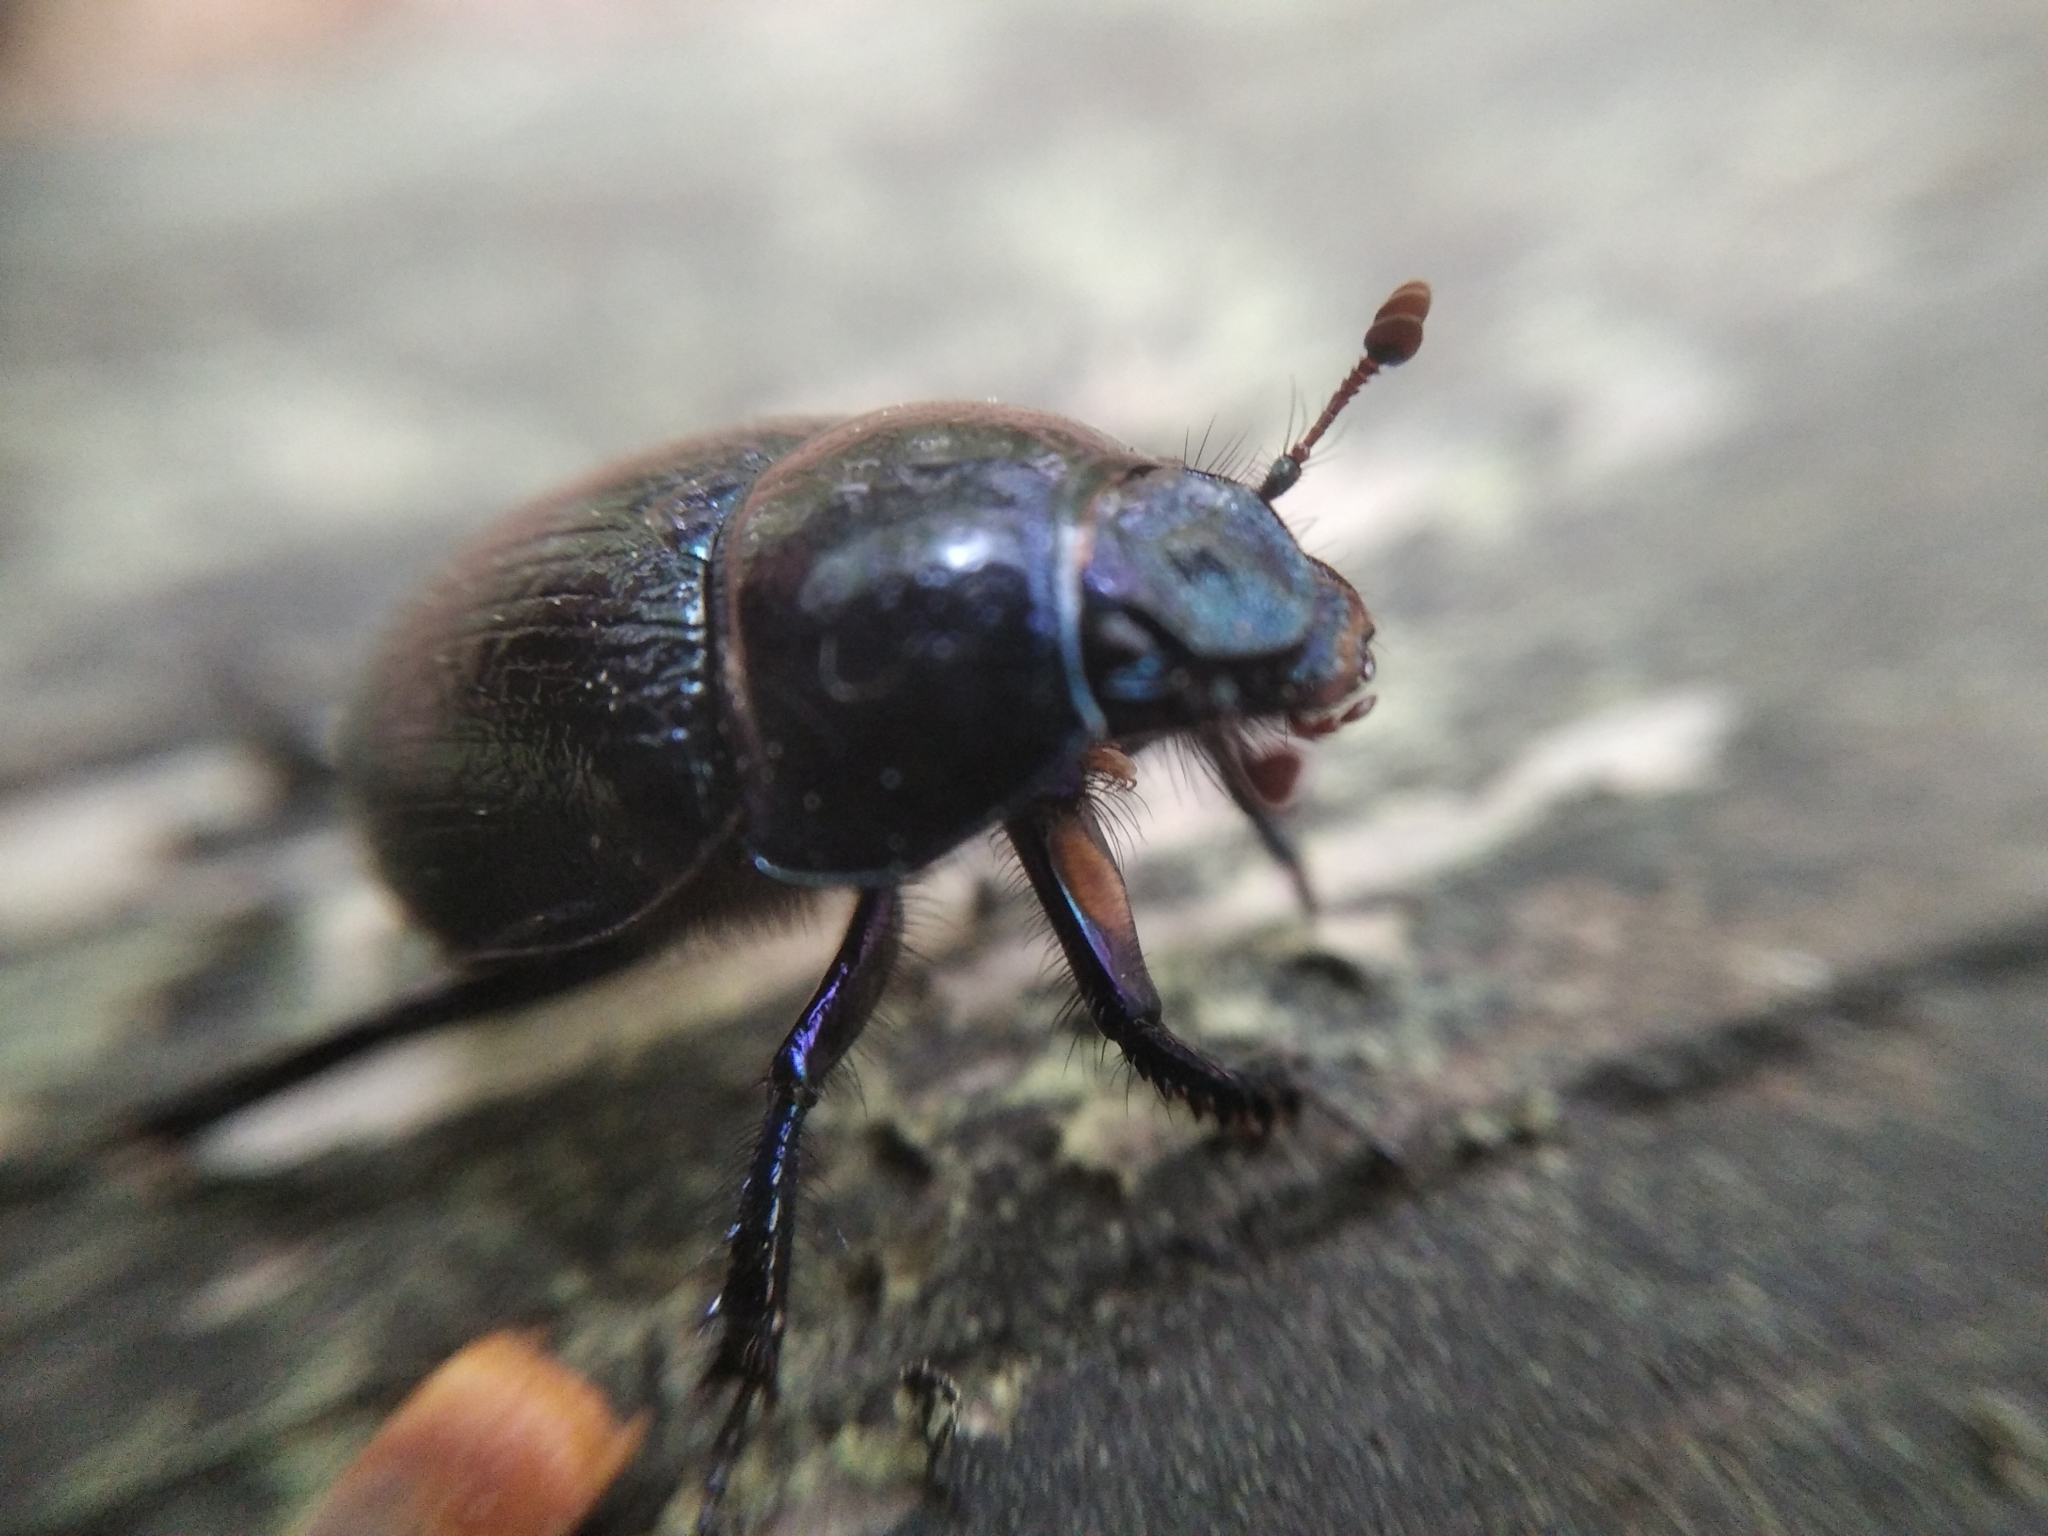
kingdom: Animalia
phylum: Arthropoda
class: Insecta
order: Coleoptera
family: Geotrupidae
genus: Anoplotrupes
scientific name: Anoplotrupes stercorosus
